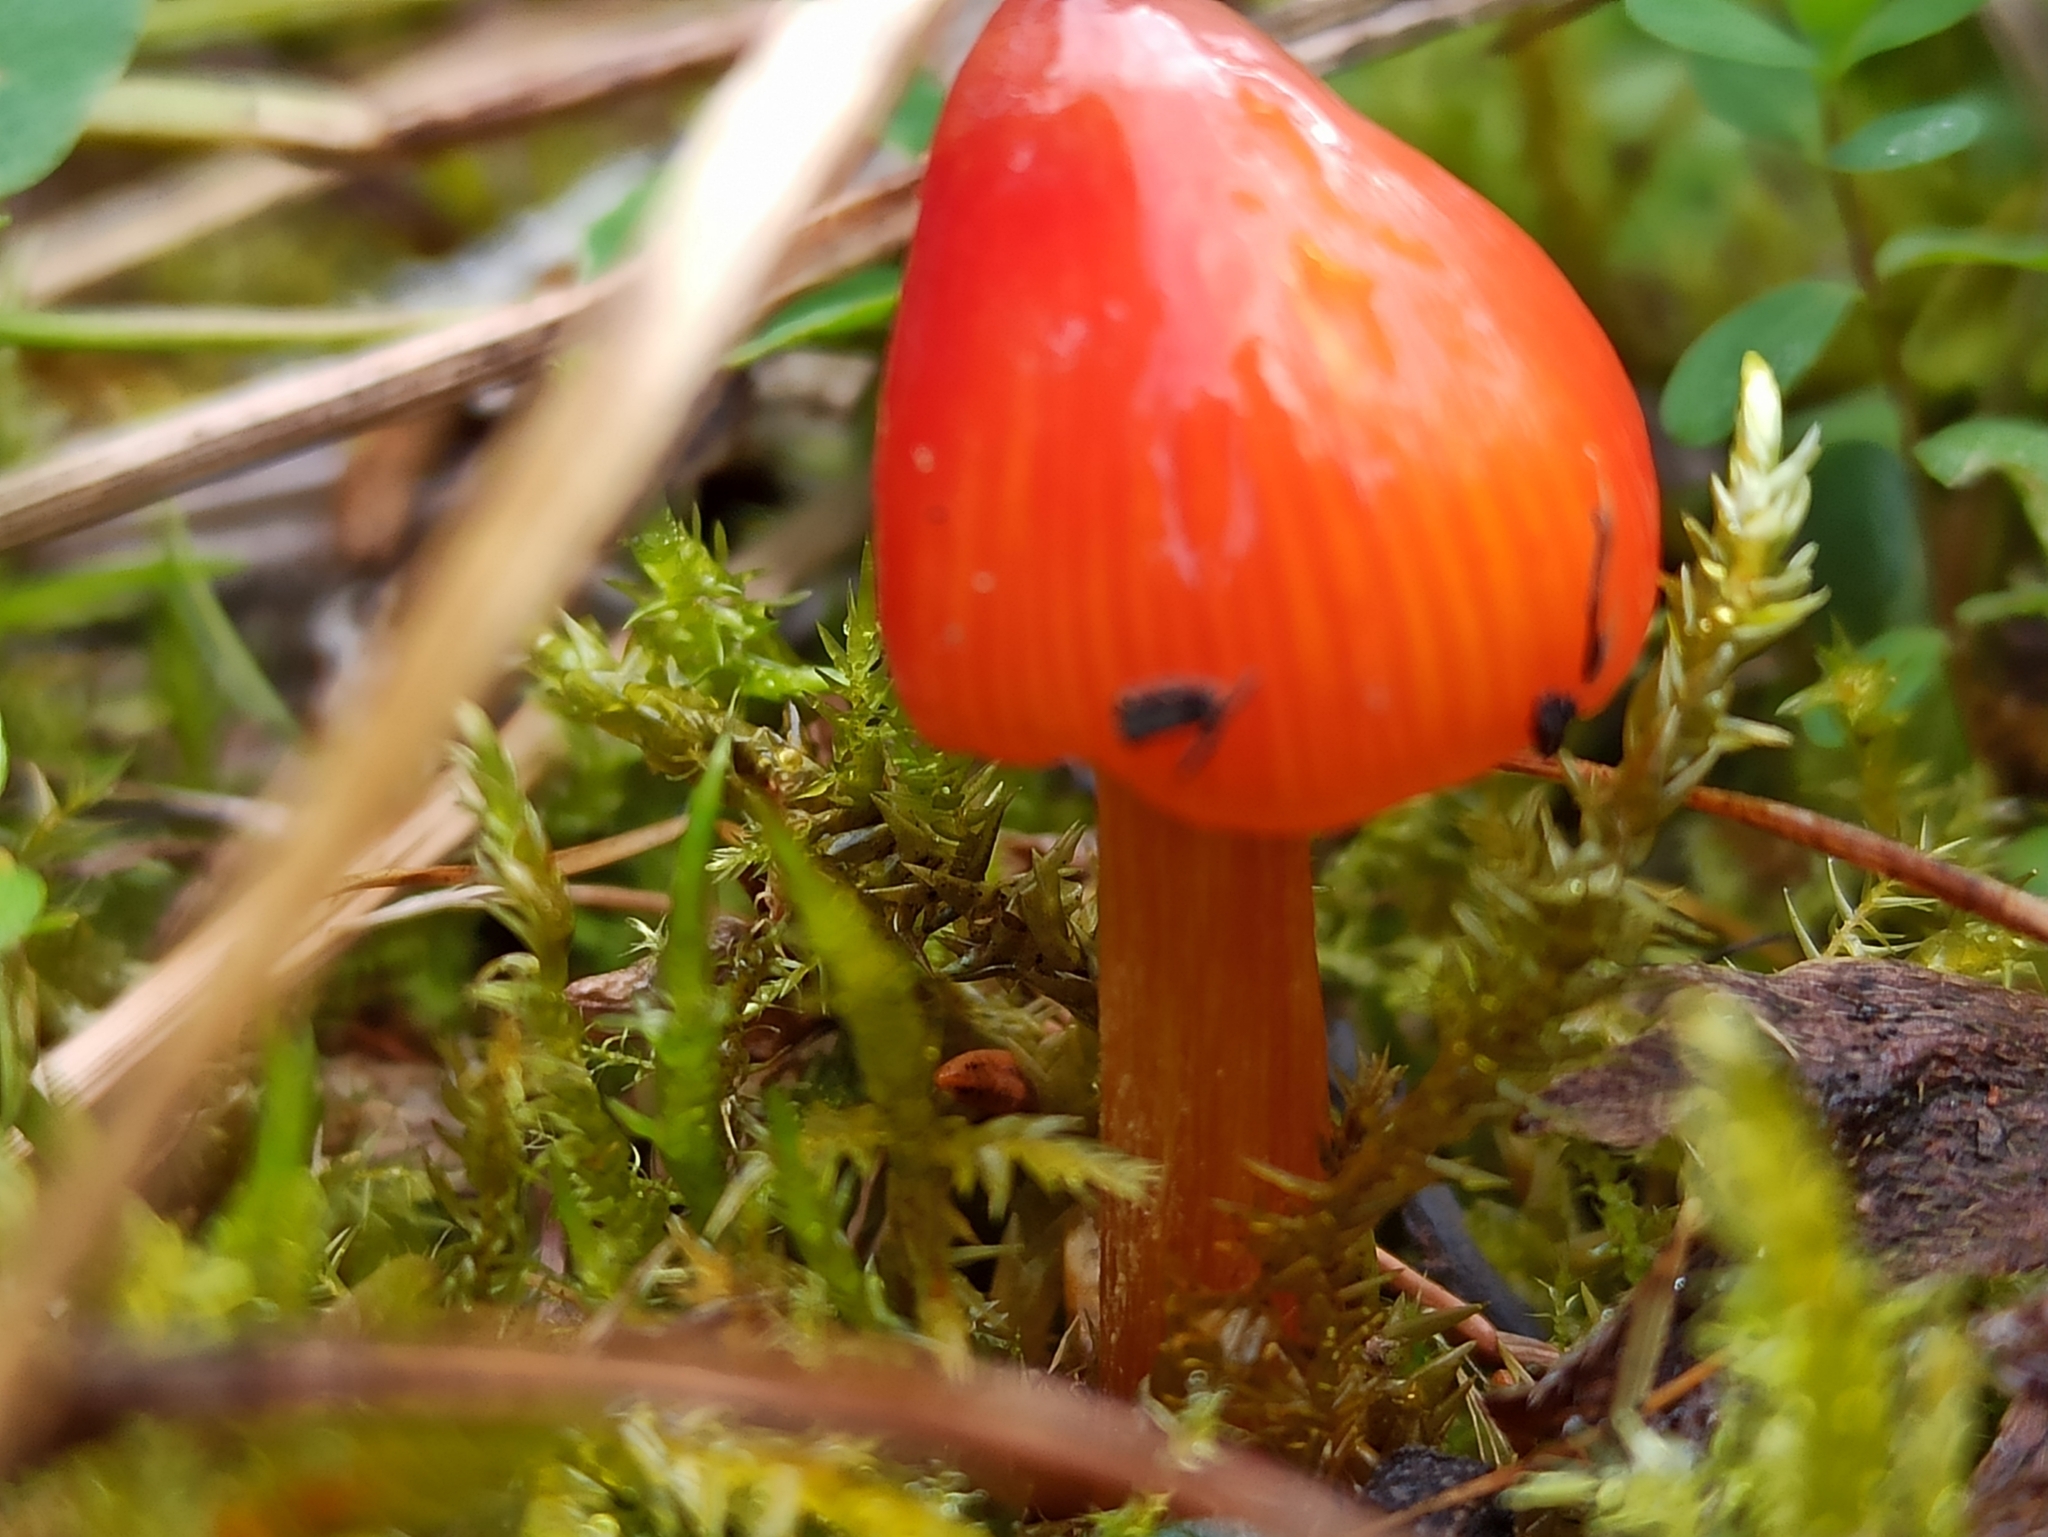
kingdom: Fungi
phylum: Basidiomycota
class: Agaricomycetes
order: Agaricales
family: Hygrophoraceae
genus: Hygrocybe
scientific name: Hygrocybe conica
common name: Blackening wax-cap
